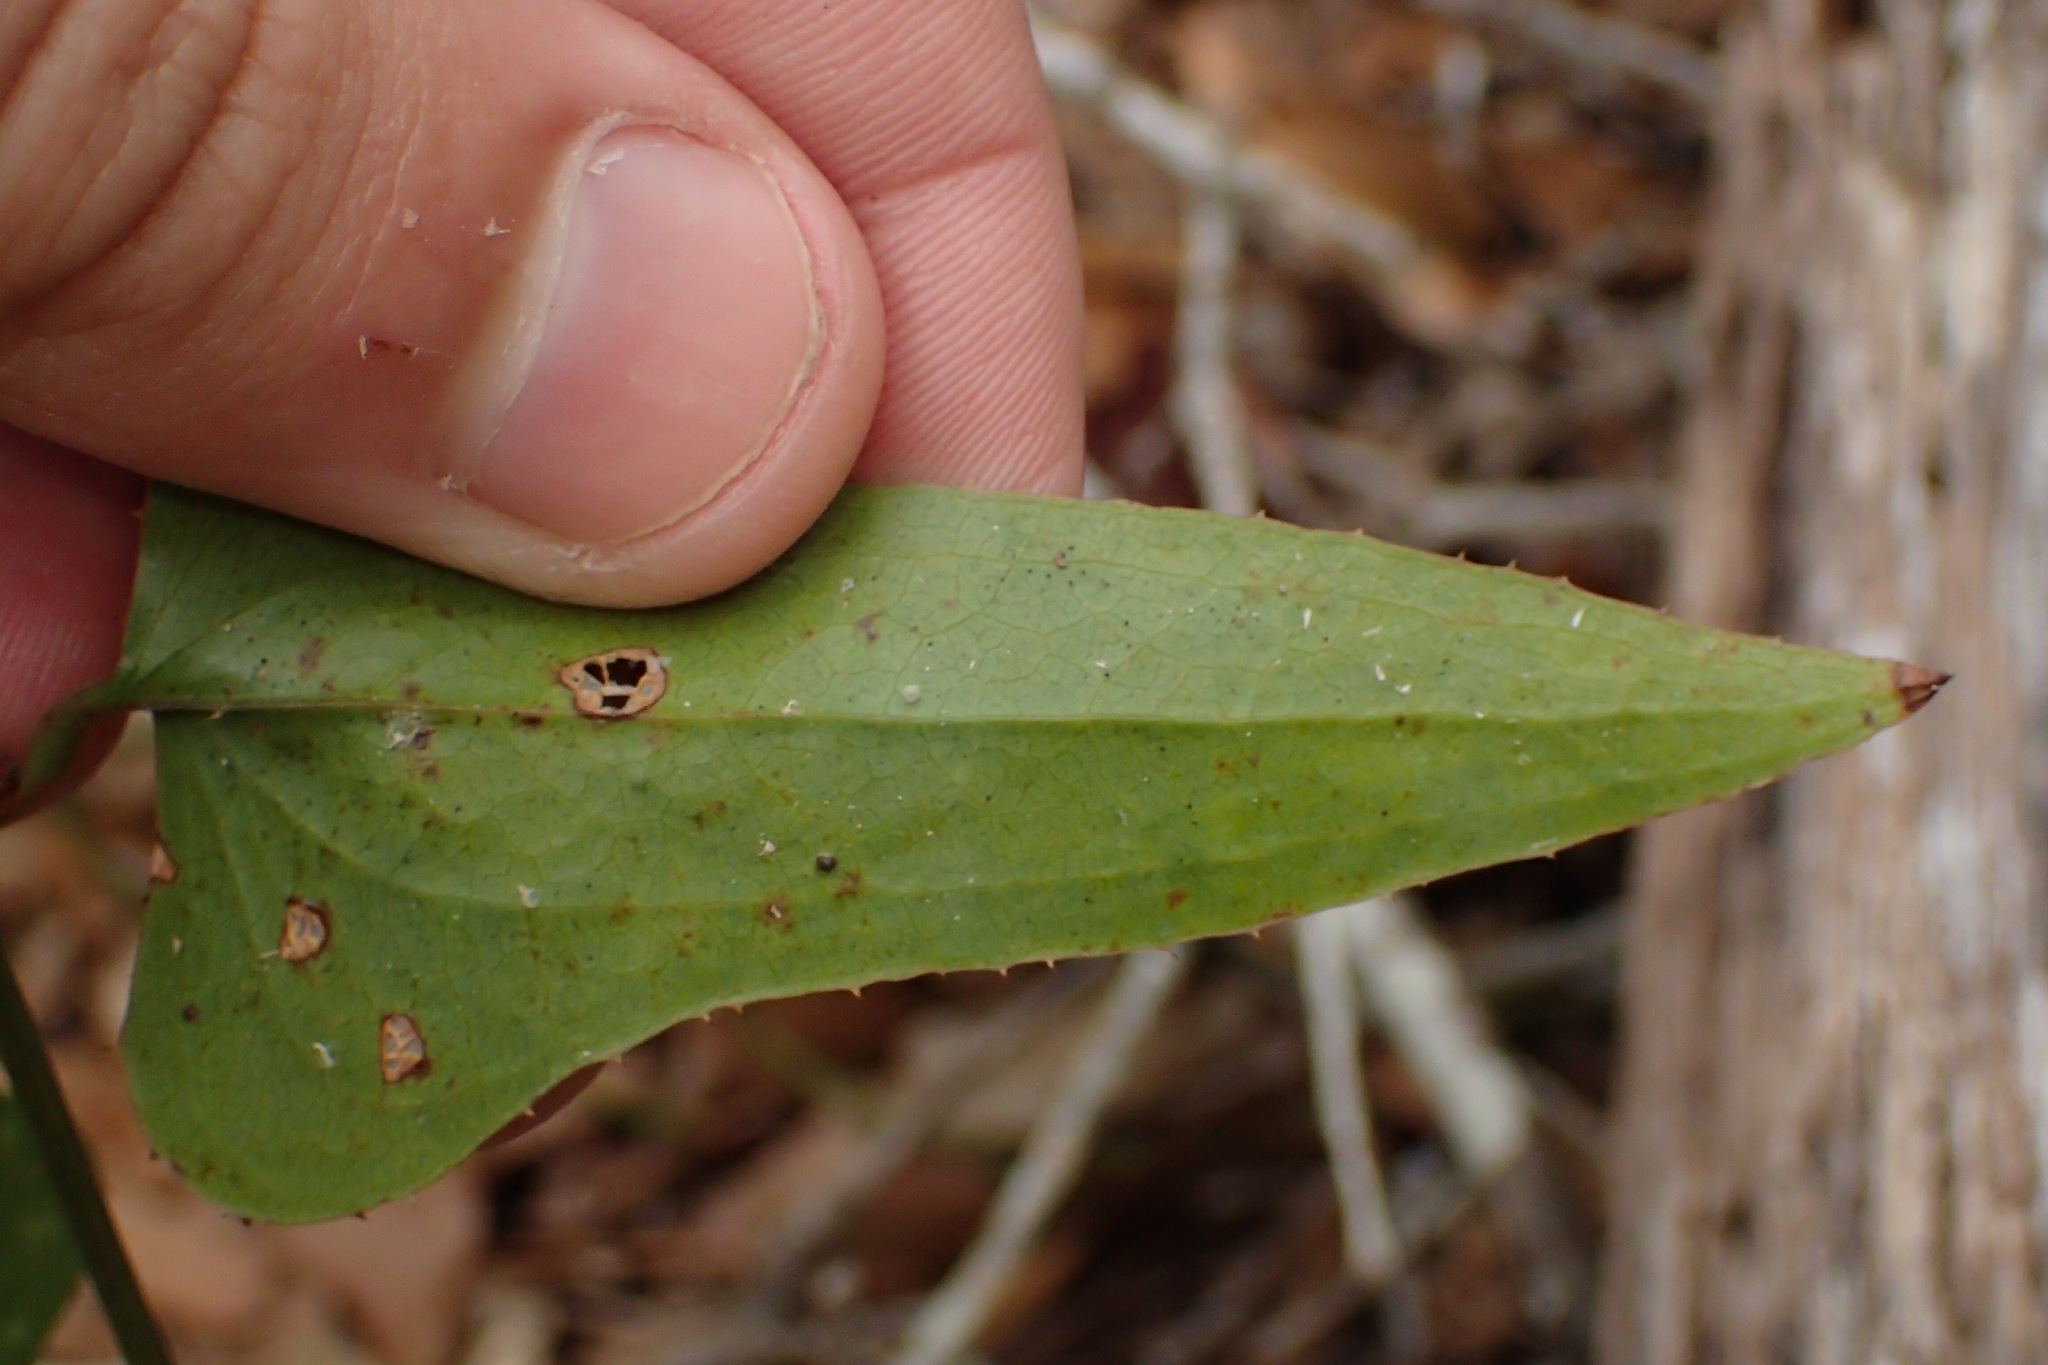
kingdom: Plantae
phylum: Tracheophyta
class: Liliopsida
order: Liliales
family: Smilacaceae
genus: Smilax
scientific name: Smilax bona-nox
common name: Catbrier
